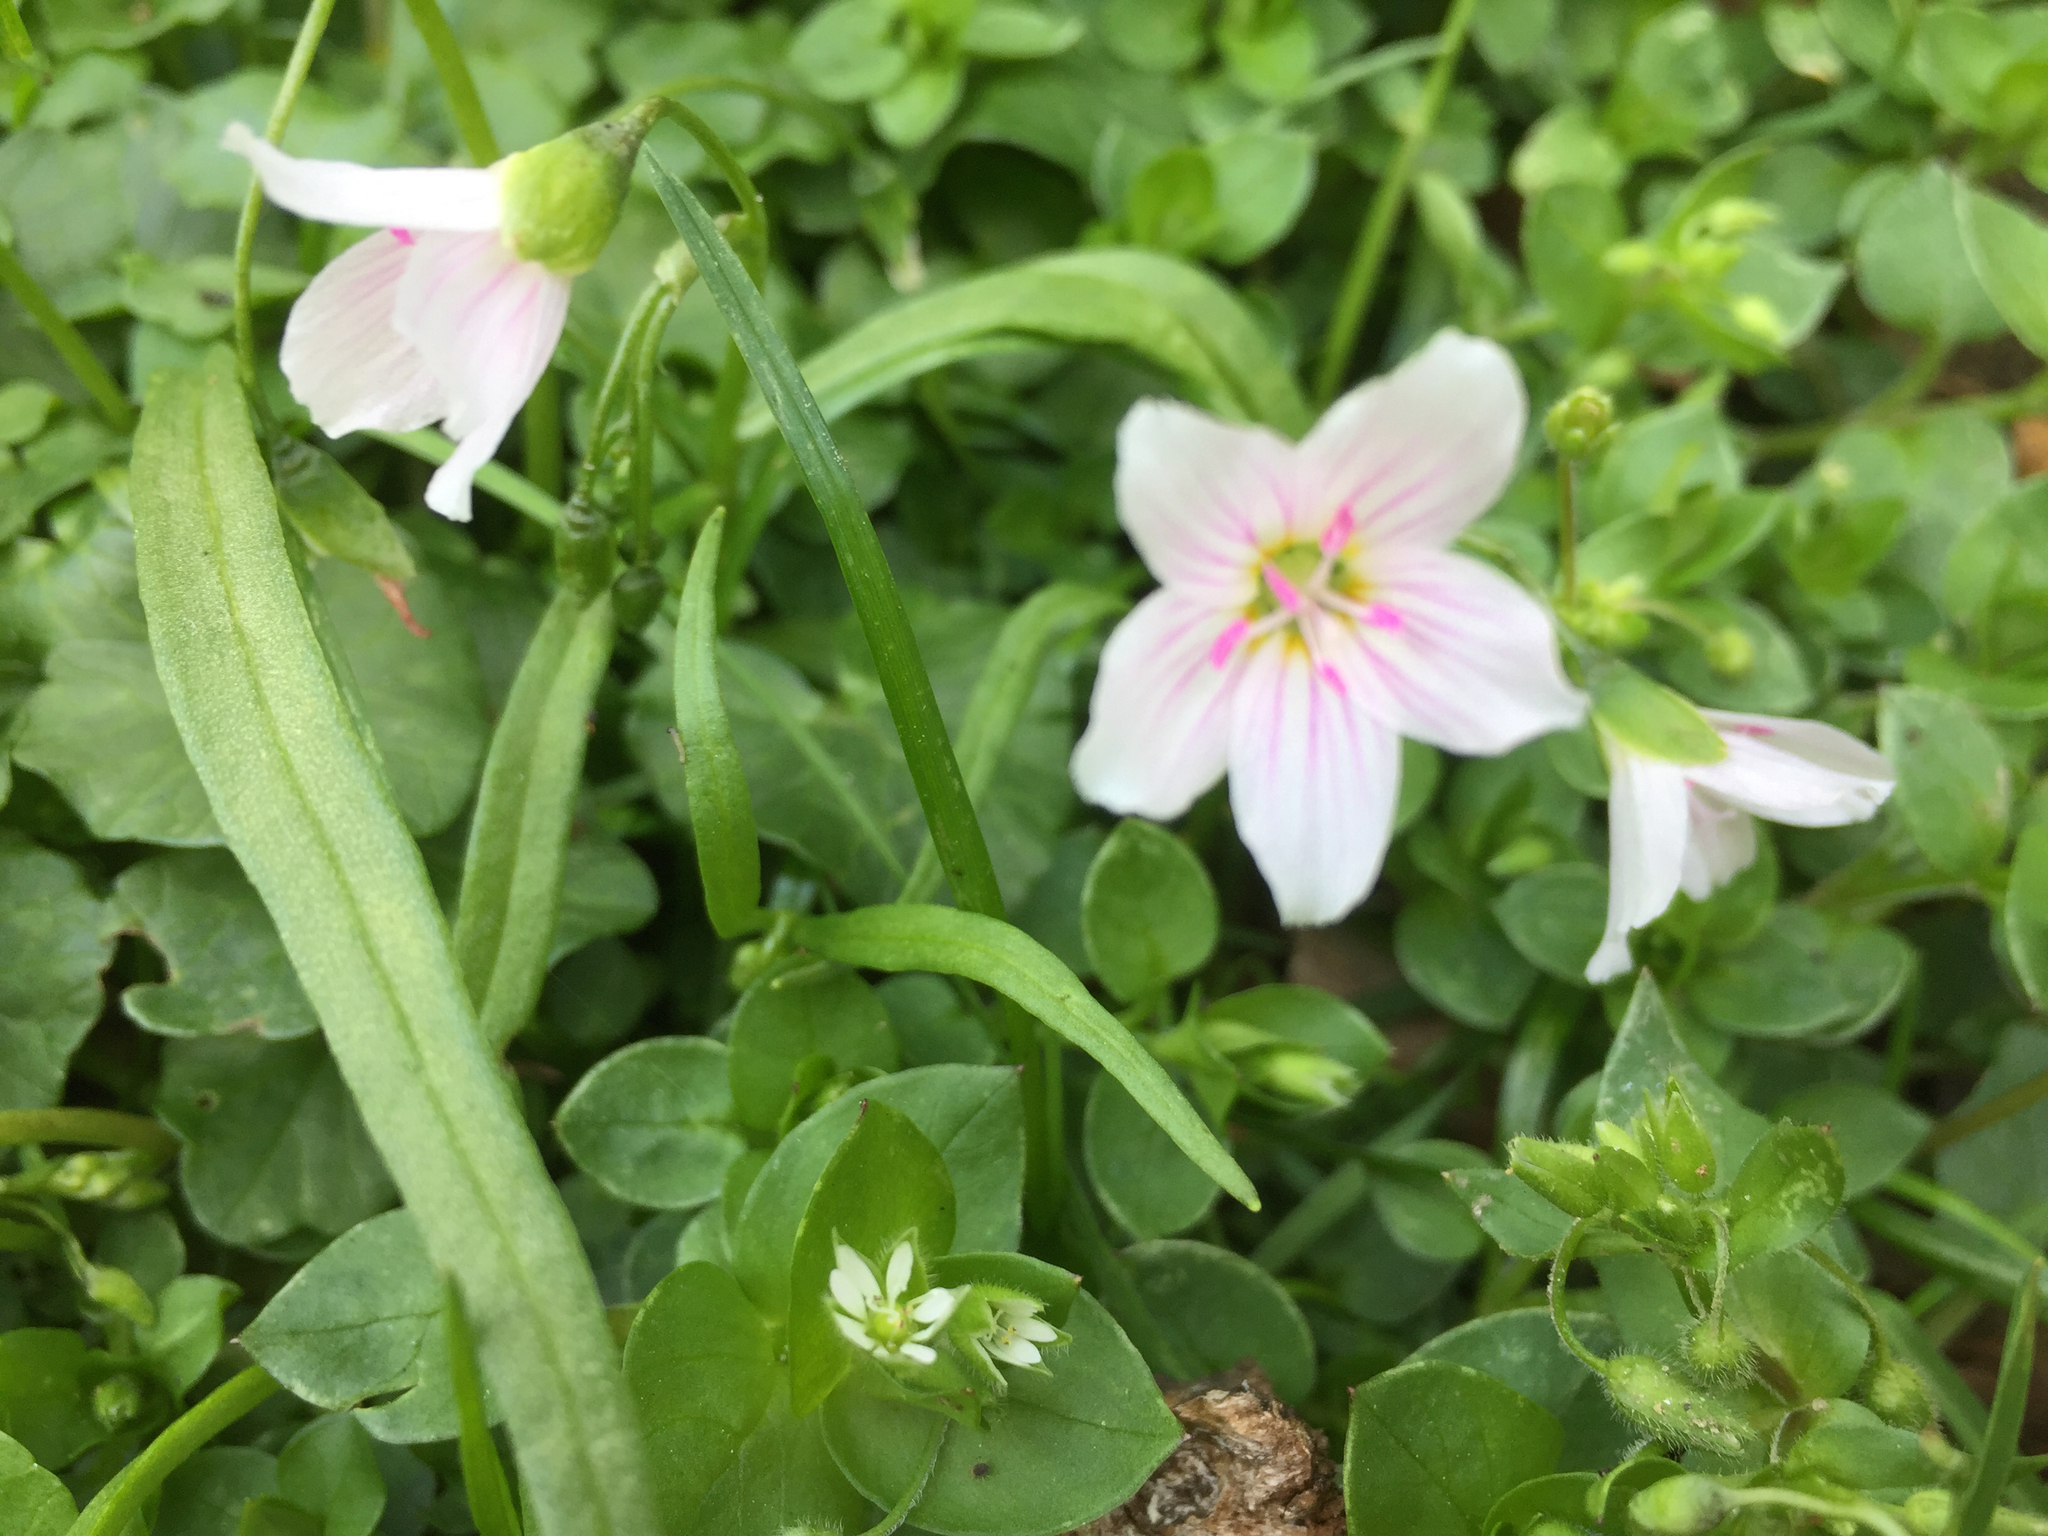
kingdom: Plantae
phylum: Tracheophyta
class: Magnoliopsida
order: Caryophyllales
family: Montiaceae
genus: Claytonia
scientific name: Claytonia virginica
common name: Virginia springbeauty
